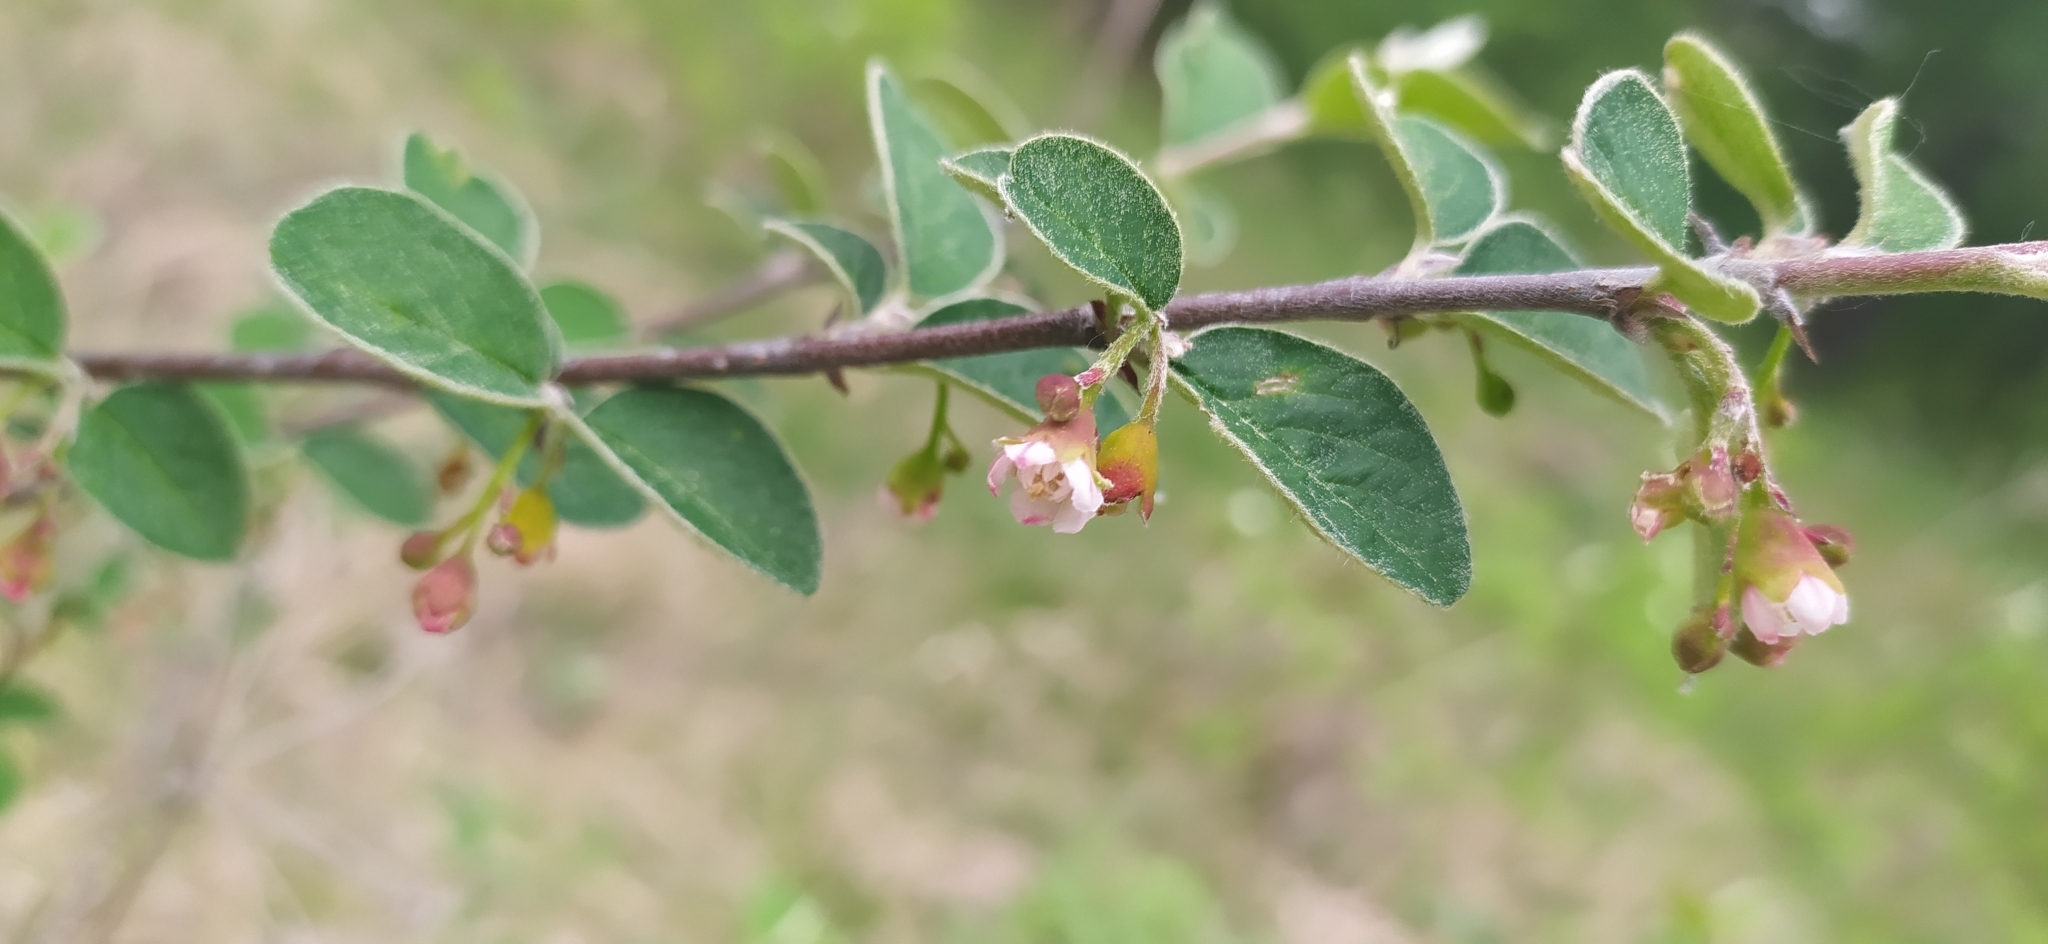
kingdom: Plantae
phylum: Tracheophyta
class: Magnoliopsida
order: Rosales
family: Rosaceae
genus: Cotoneaster
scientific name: Cotoneaster melanocarpus
